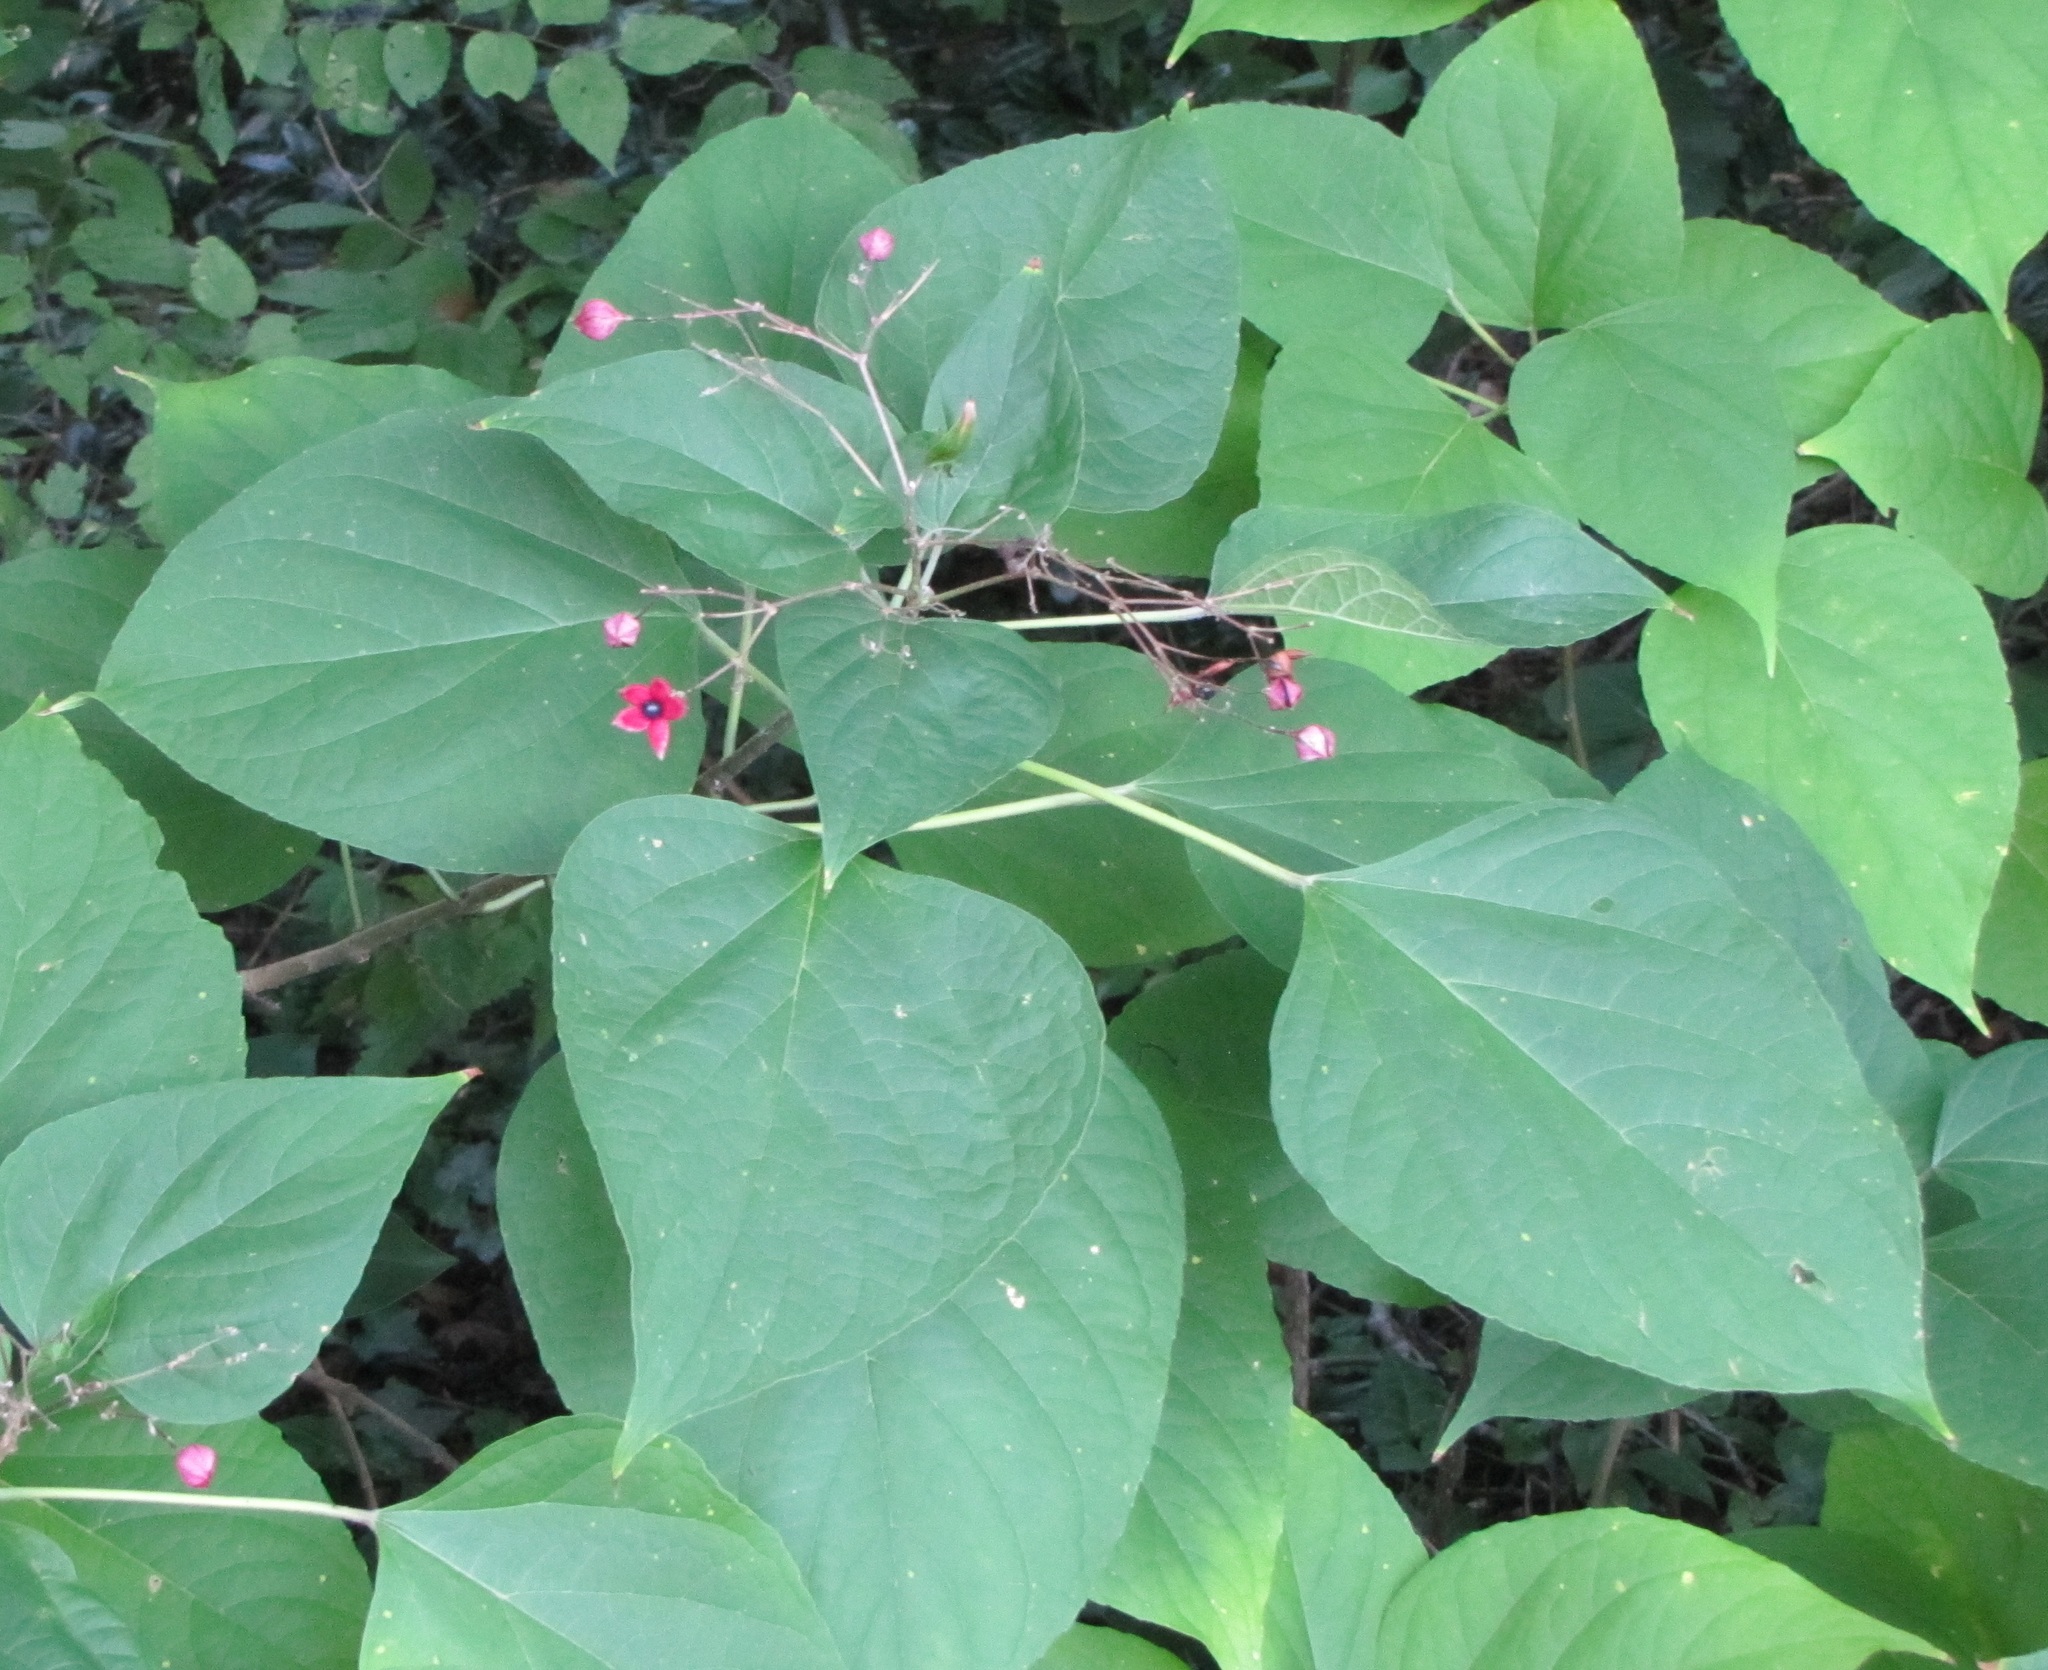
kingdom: Plantae
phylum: Tracheophyta
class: Magnoliopsida
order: Lamiales
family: Lamiaceae
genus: Clerodendrum
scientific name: Clerodendrum trichotomum
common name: Harlequin glorybower
